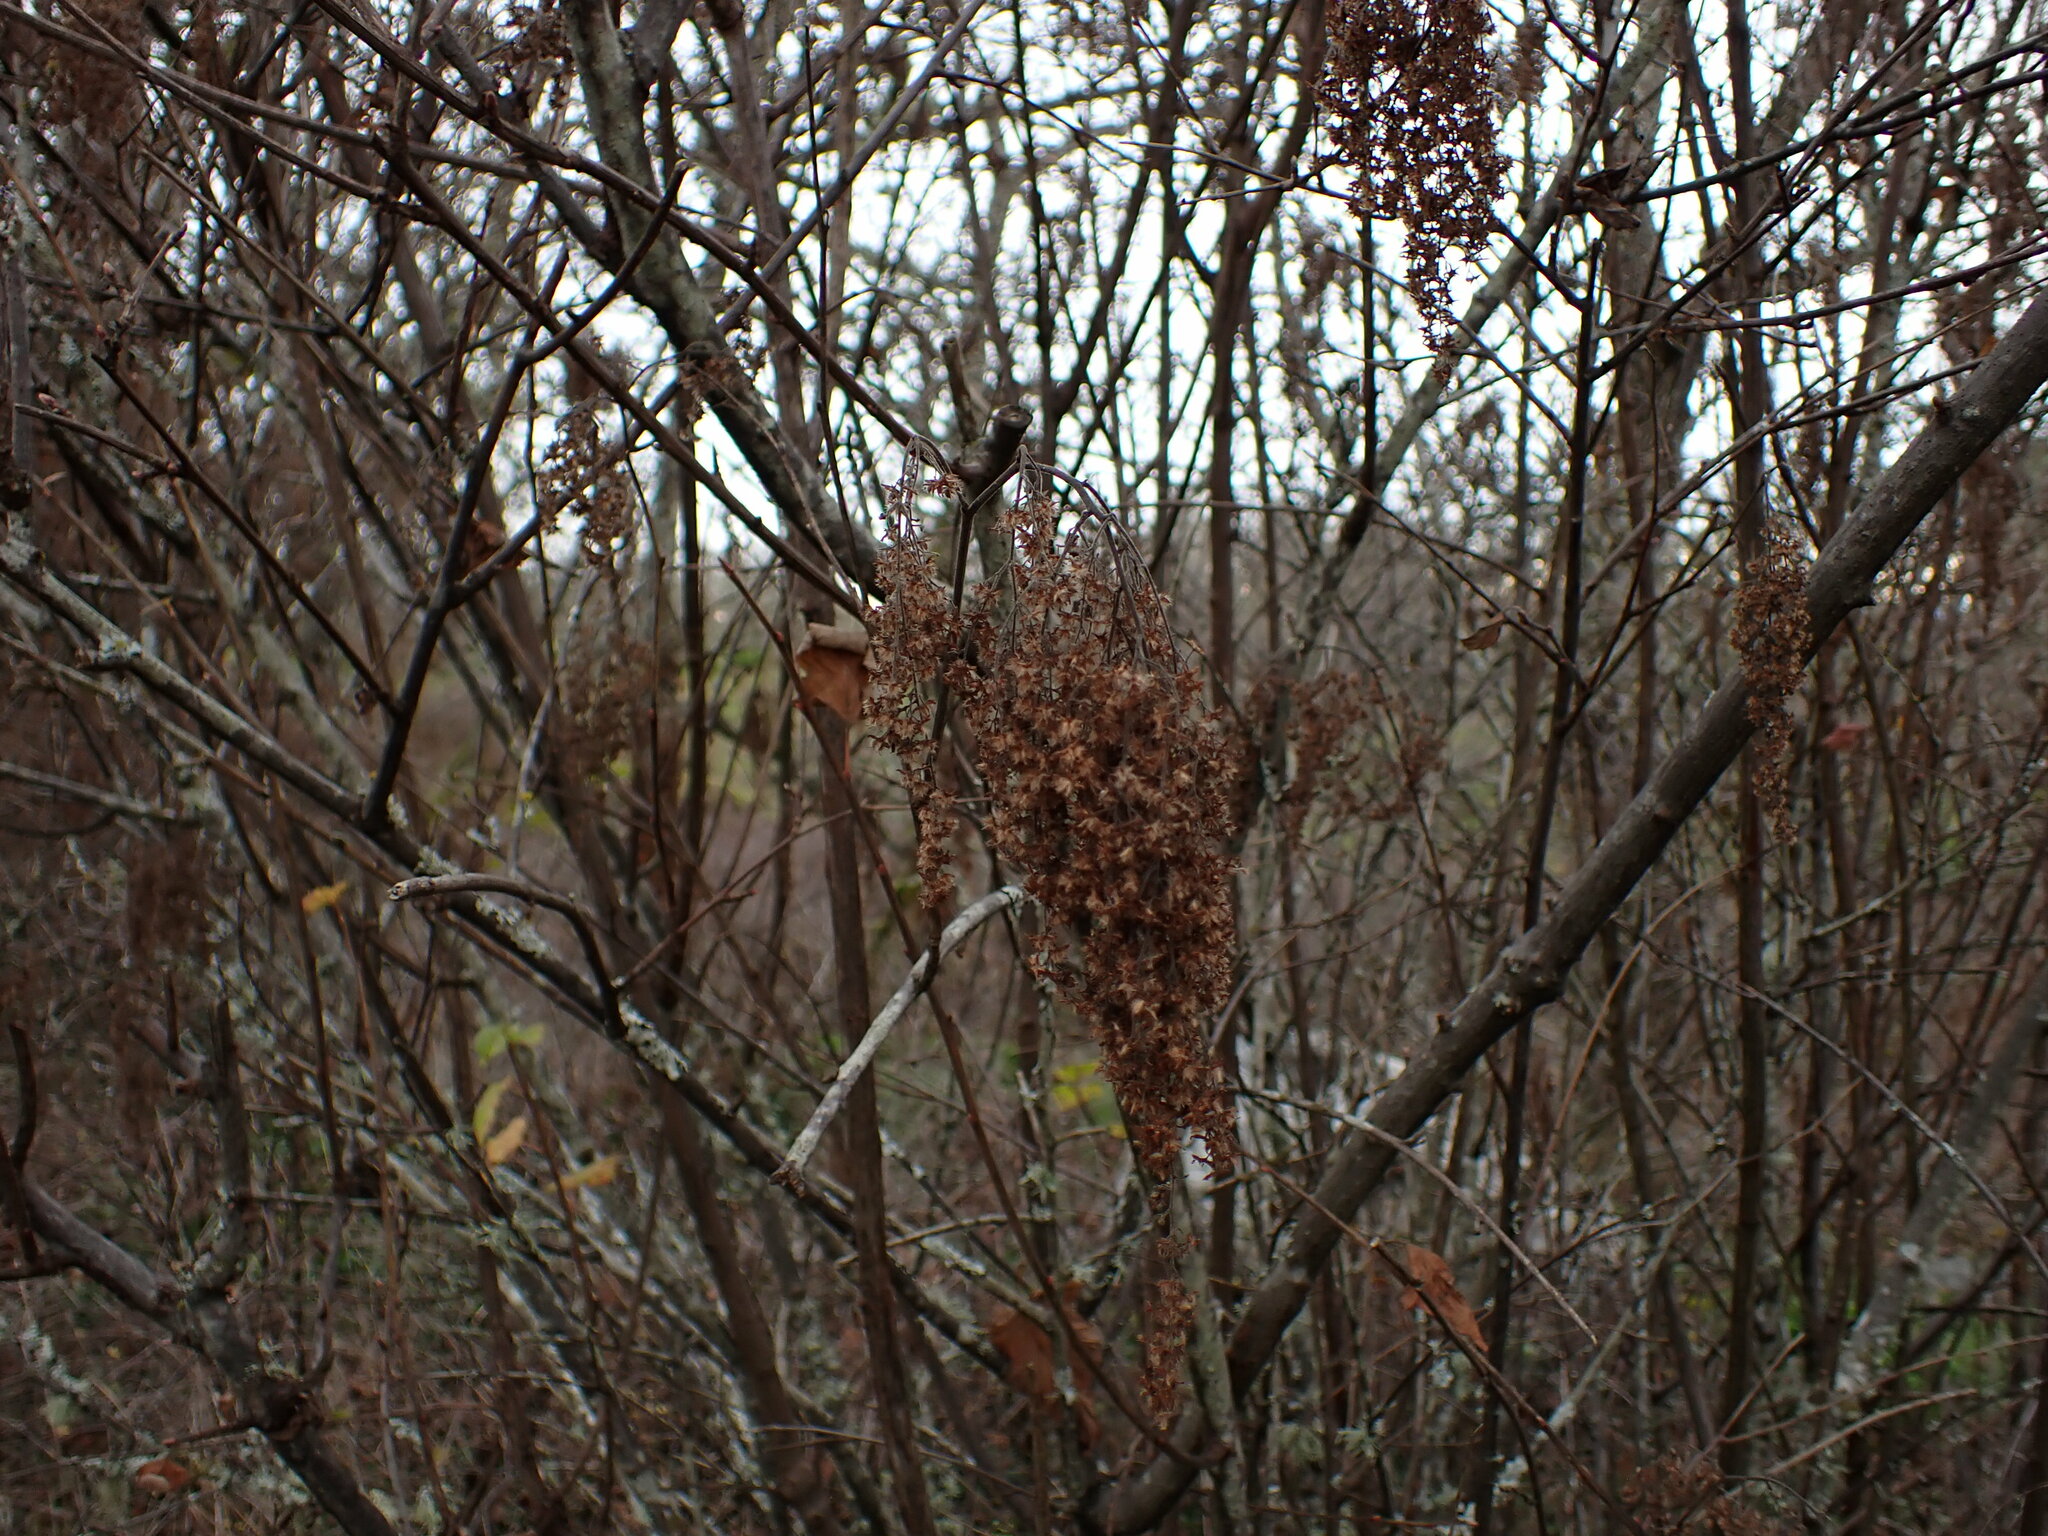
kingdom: Plantae
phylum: Tracheophyta
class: Magnoliopsida
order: Rosales
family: Rosaceae
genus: Holodiscus
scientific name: Holodiscus discolor
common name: Oceanspray
